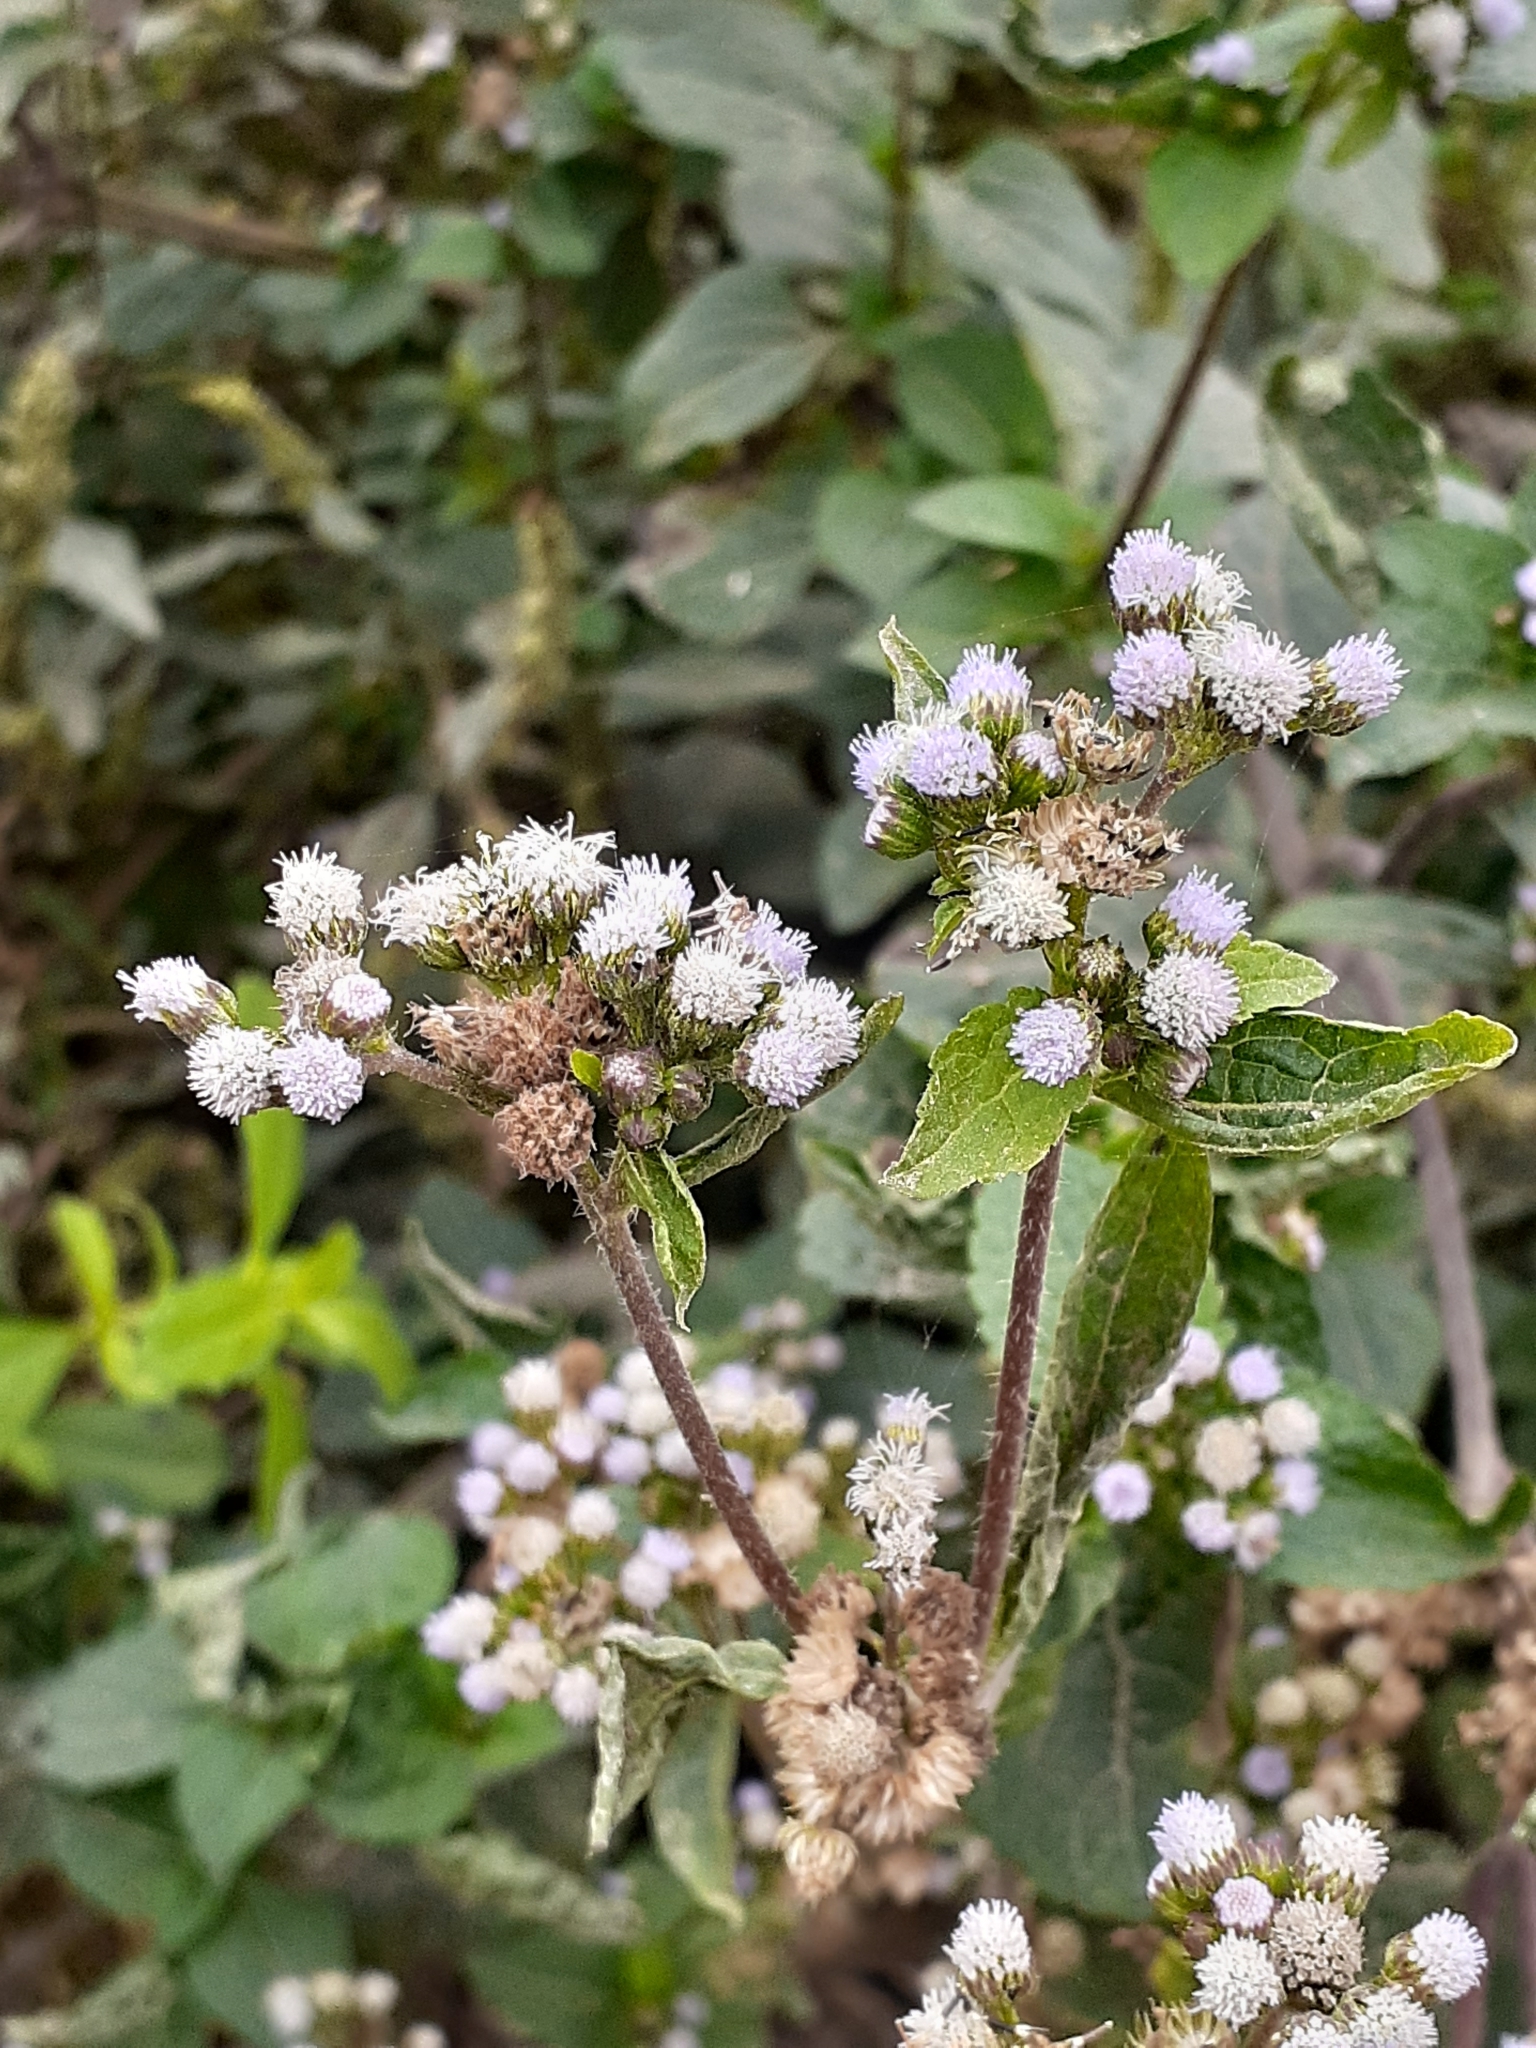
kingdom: Plantae
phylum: Tracheophyta
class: Magnoliopsida
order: Asterales
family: Asteraceae
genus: Ageratum
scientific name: Ageratum conyzoides
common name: Tropical whiteweed
